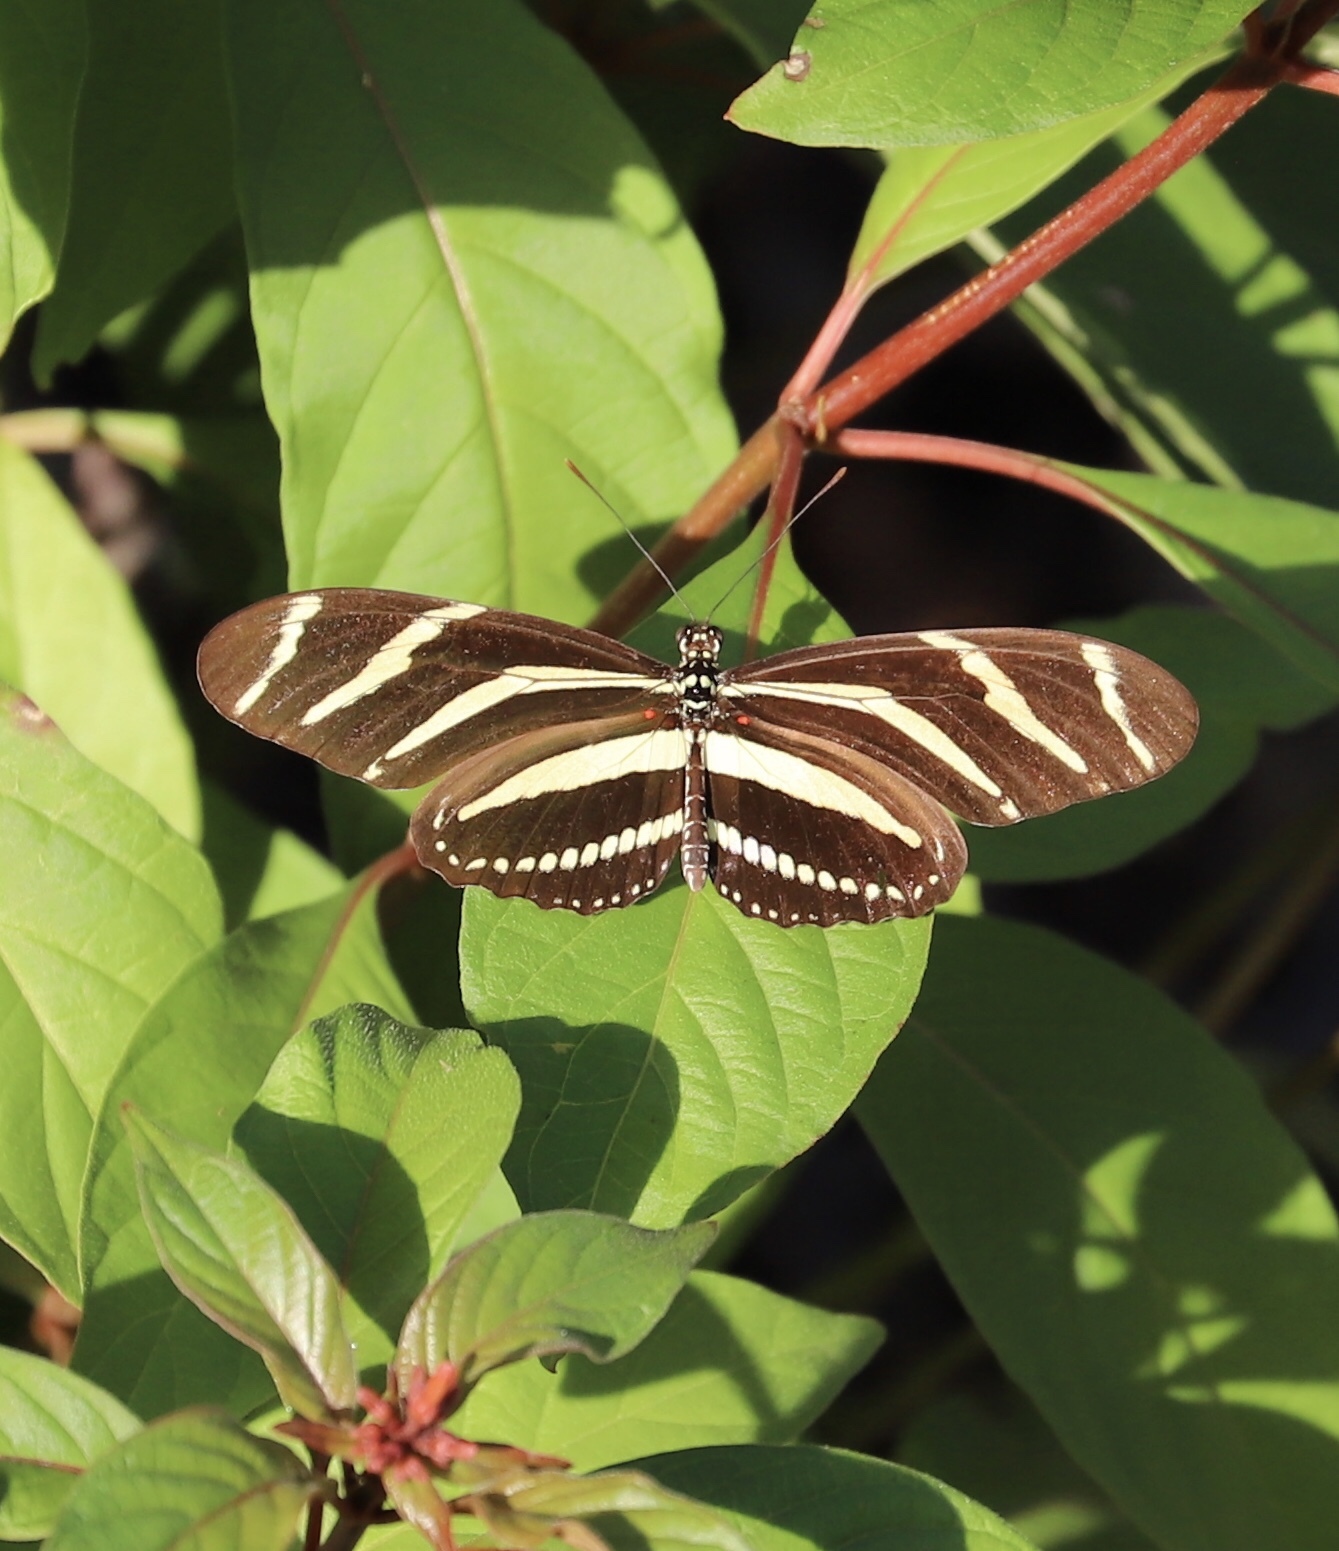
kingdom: Animalia
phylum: Arthropoda
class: Insecta
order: Lepidoptera
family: Nymphalidae
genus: Heliconius
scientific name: Heliconius charithonia
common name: Zebra long wing
